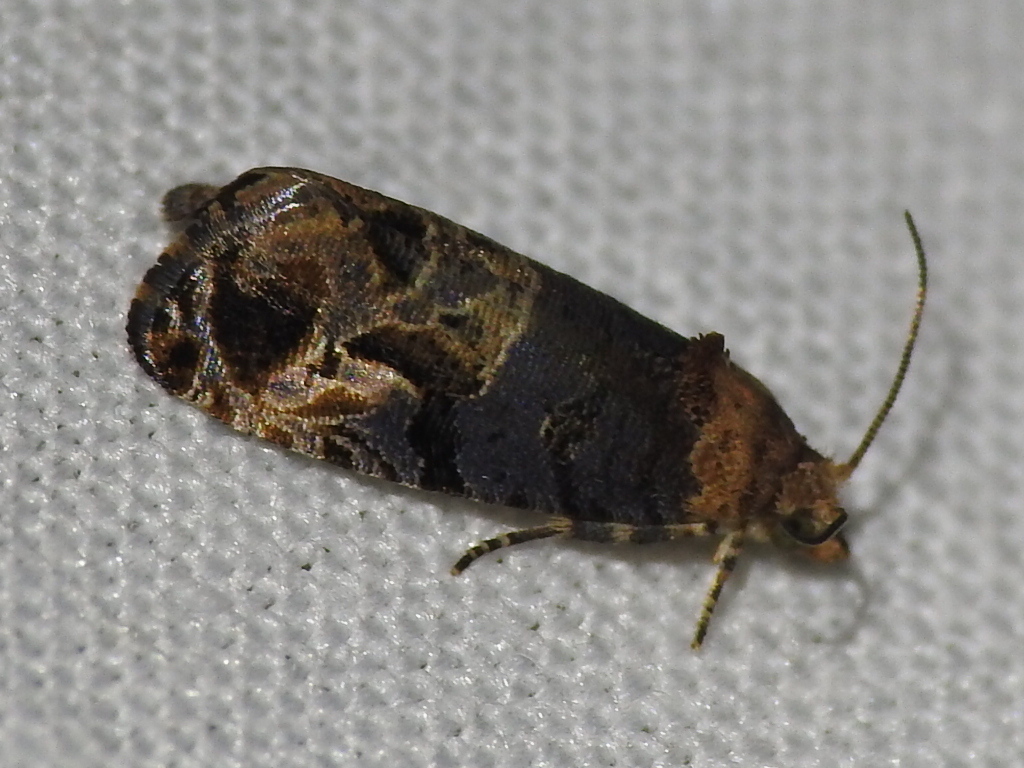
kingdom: Animalia
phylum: Arthropoda
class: Insecta
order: Lepidoptera
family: Tortricidae
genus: Paralobesia
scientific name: Paralobesia viteana
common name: Grape berry moth
